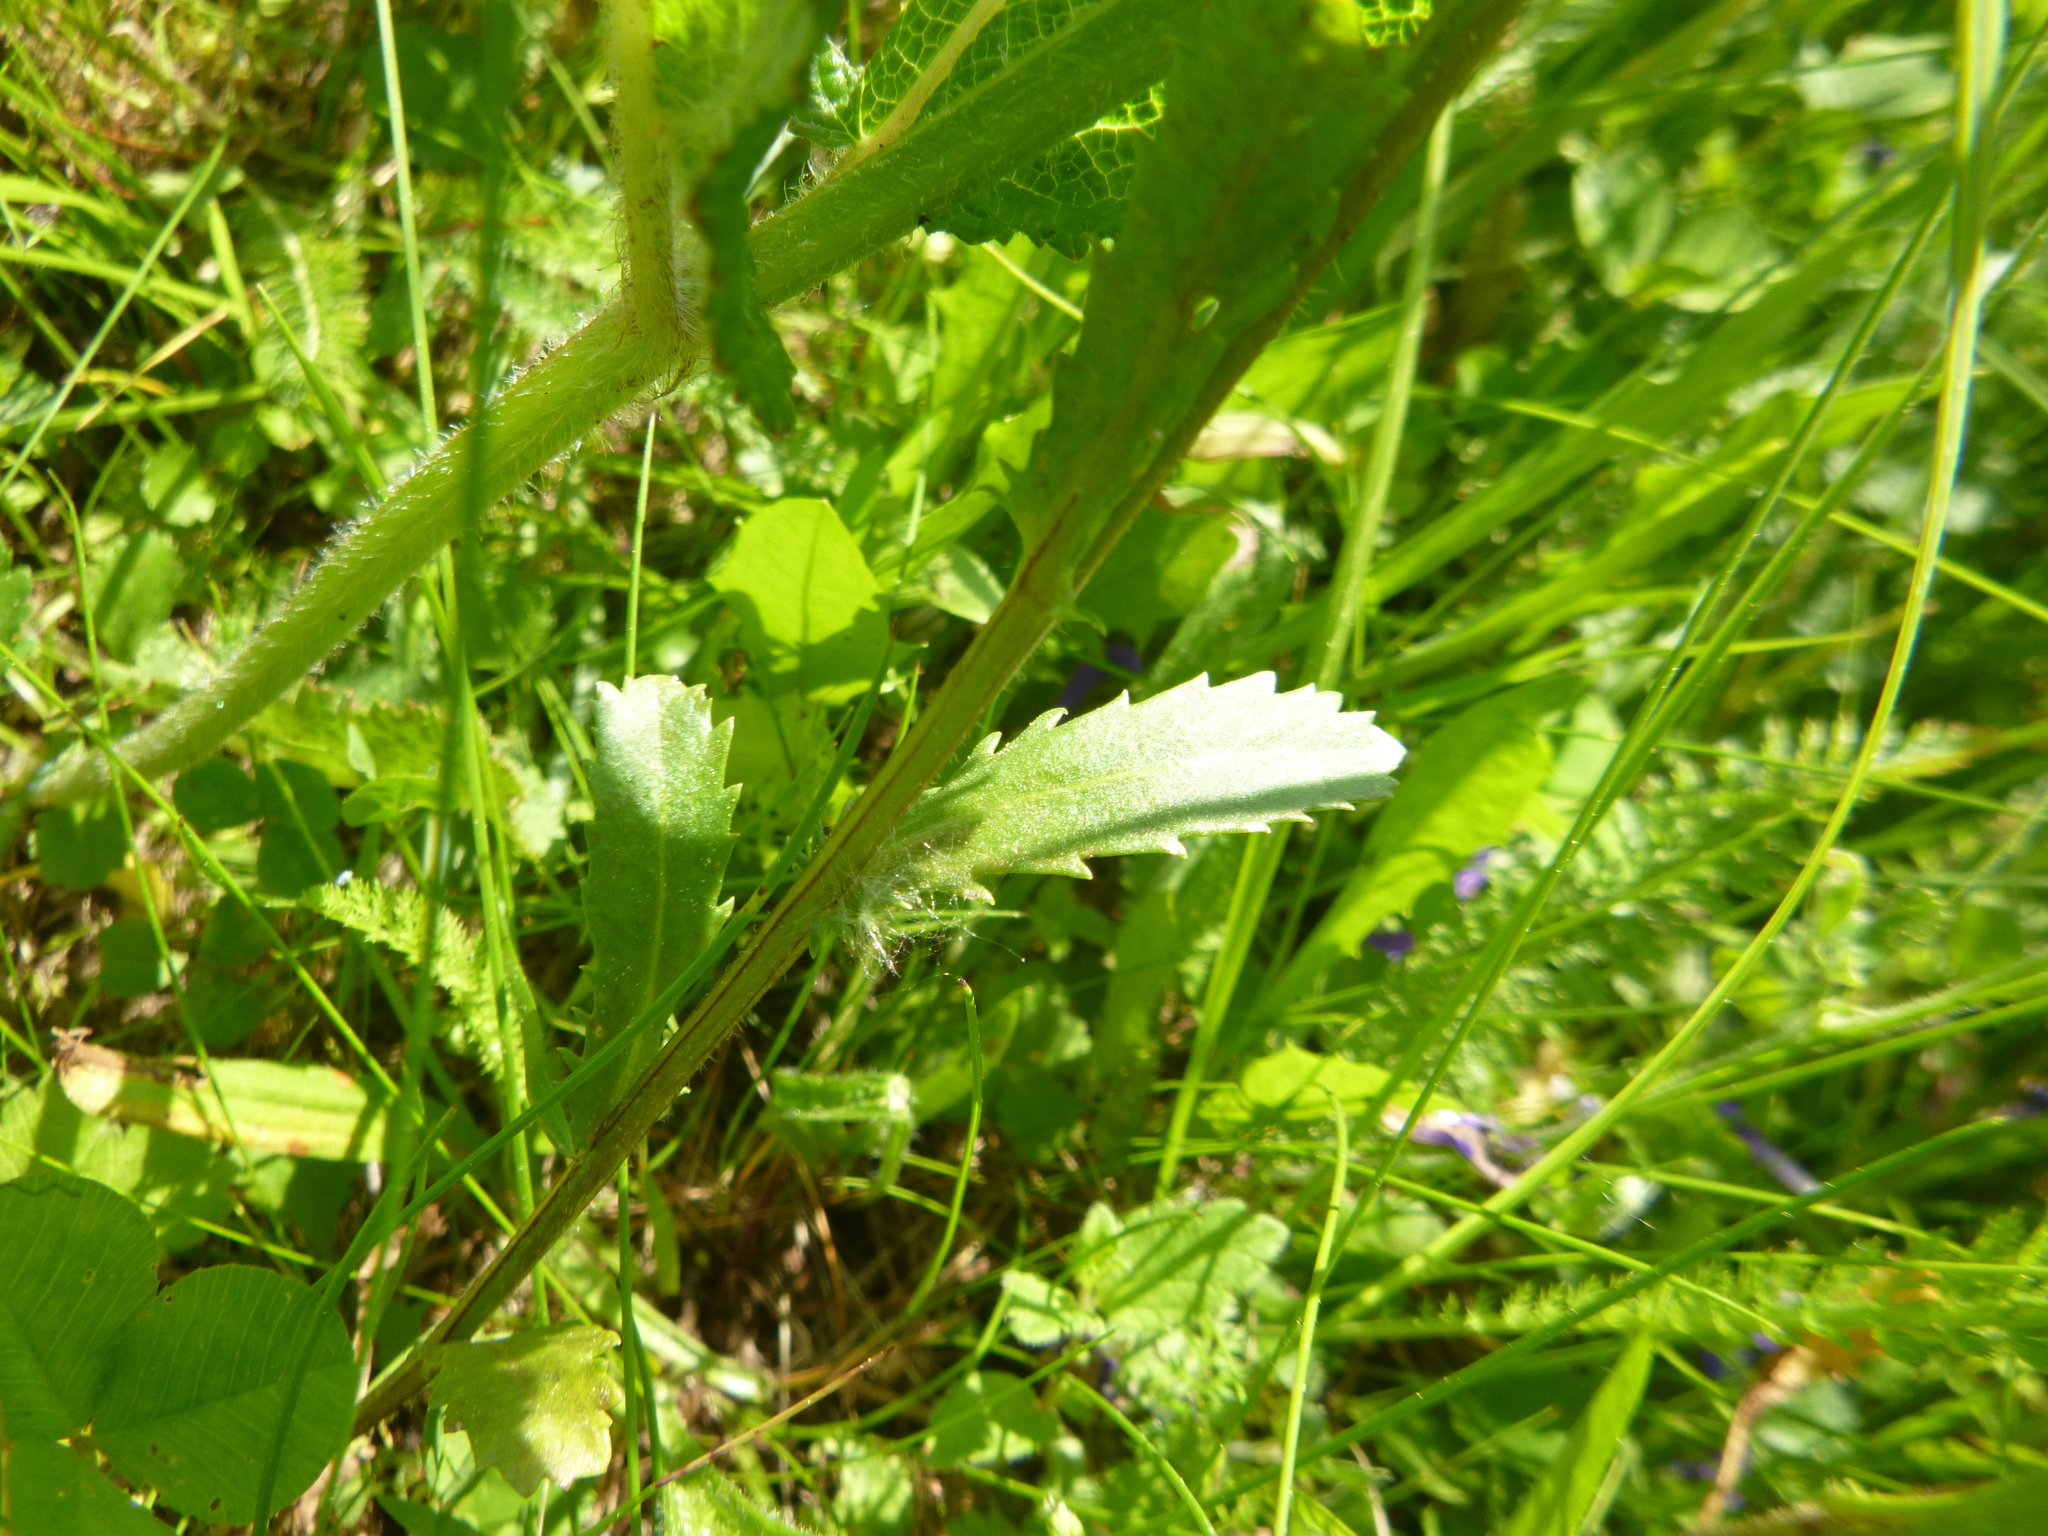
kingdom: Plantae
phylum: Tracheophyta
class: Magnoliopsida
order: Asterales
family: Asteraceae
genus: Leucanthemum
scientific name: Leucanthemum ircutianum
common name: Daisy
